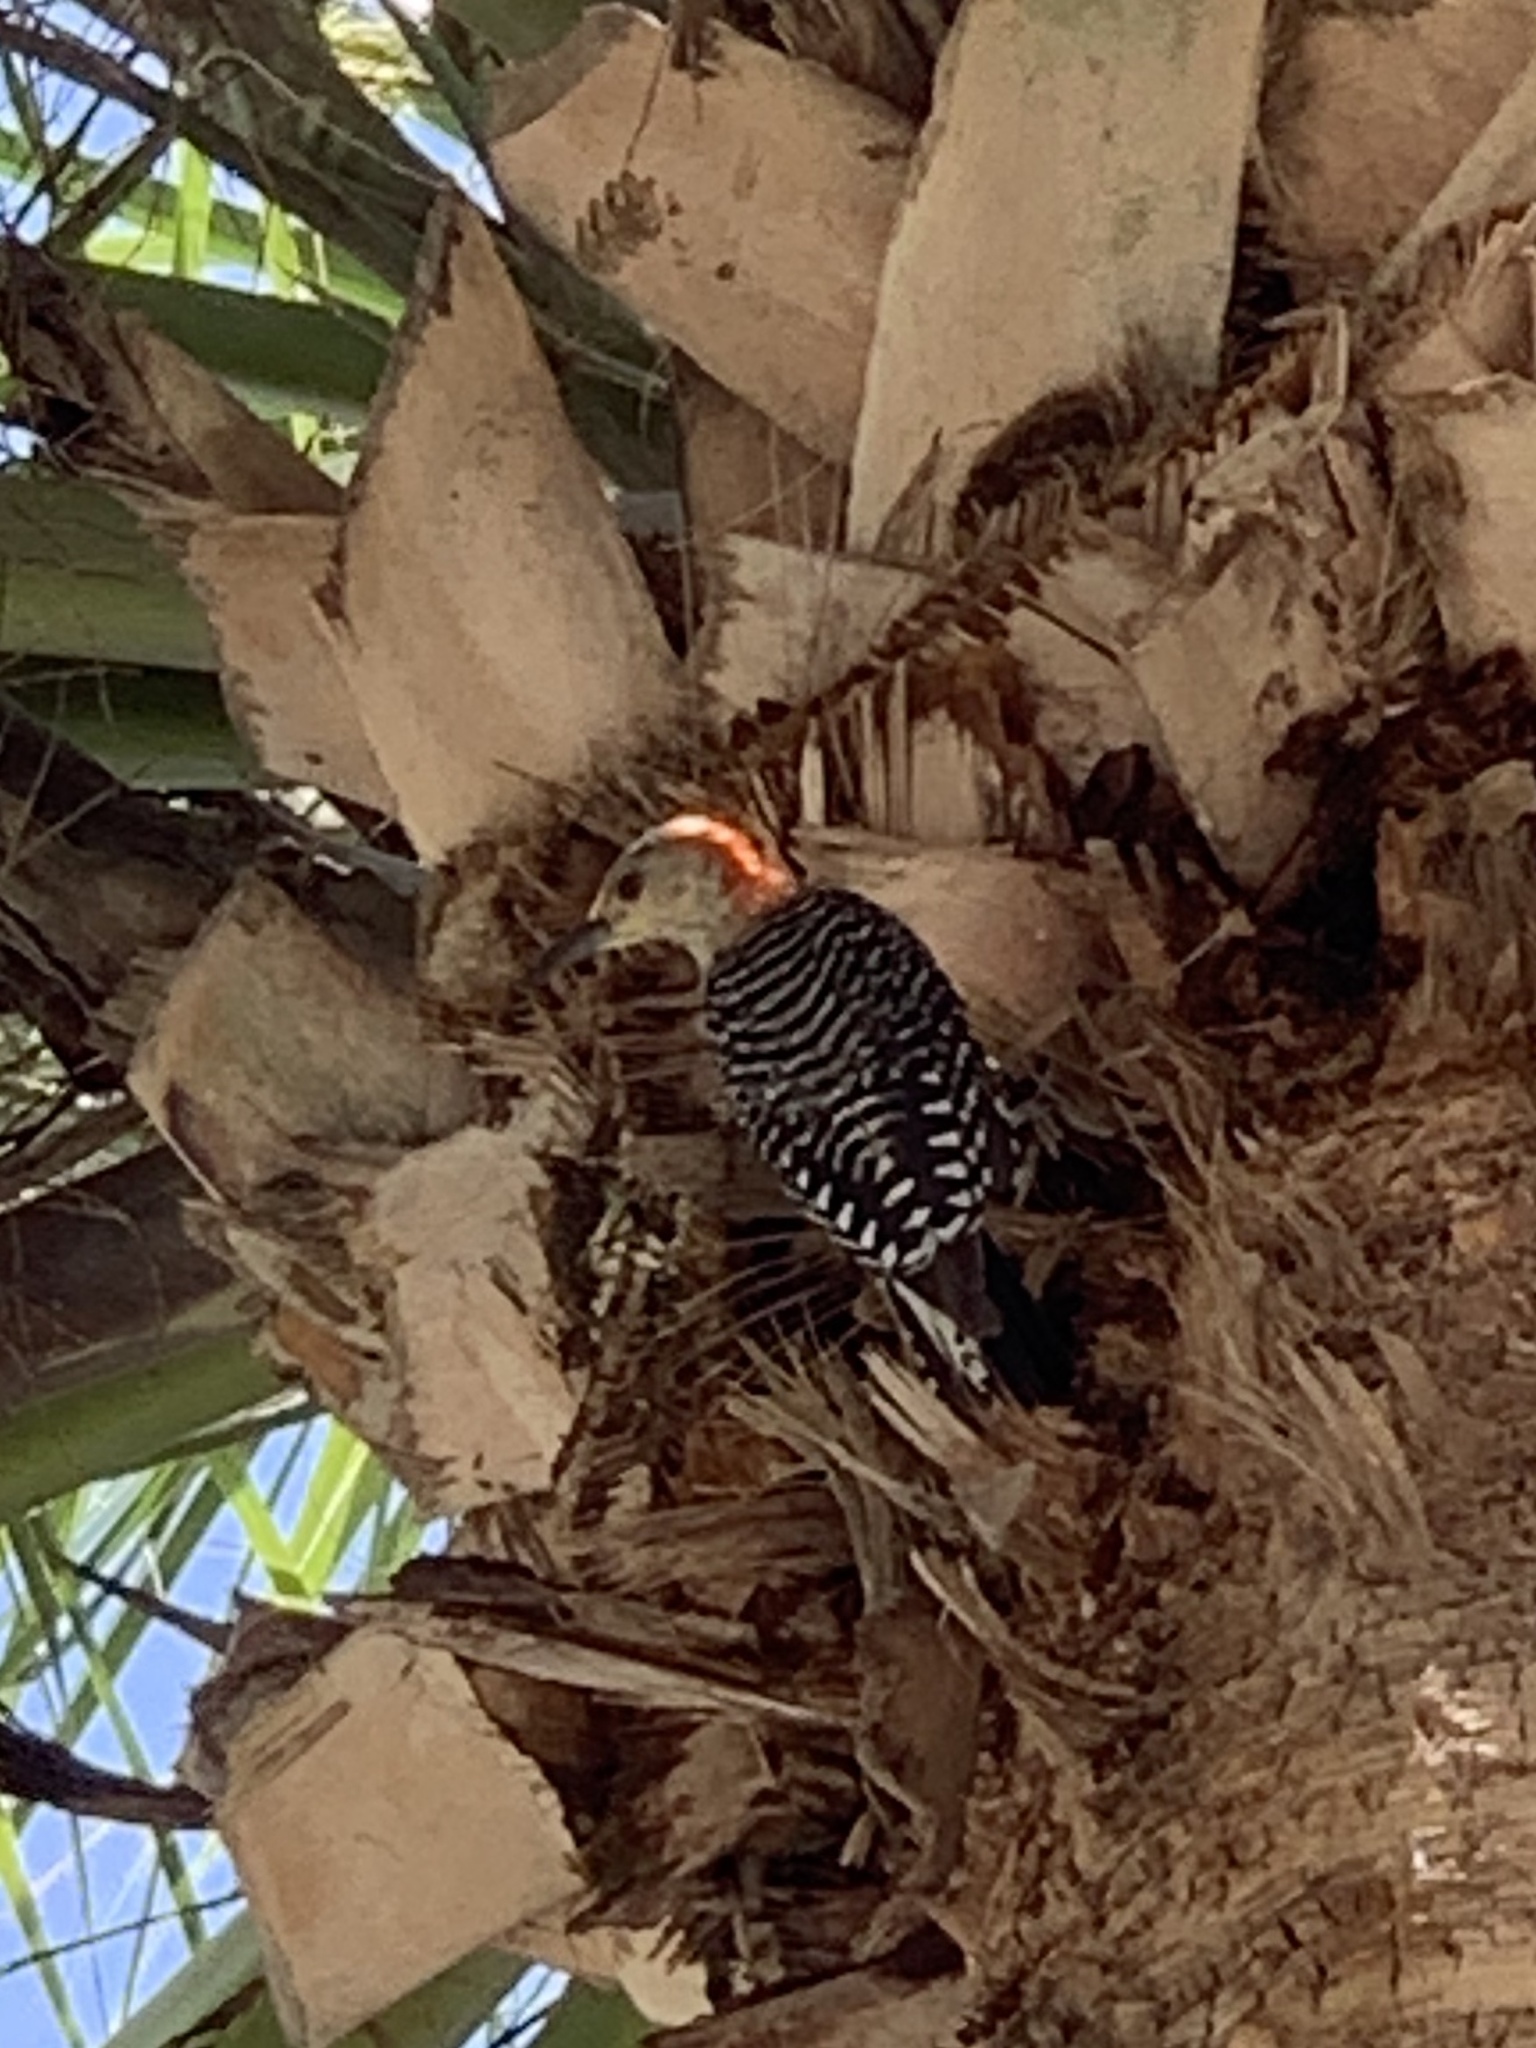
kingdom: Animalia
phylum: Chordata
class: Aves
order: Piciformes
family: Picidae
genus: Melanerpes
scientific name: Melanerpes carolinus
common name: Red-bellied woodpecker
